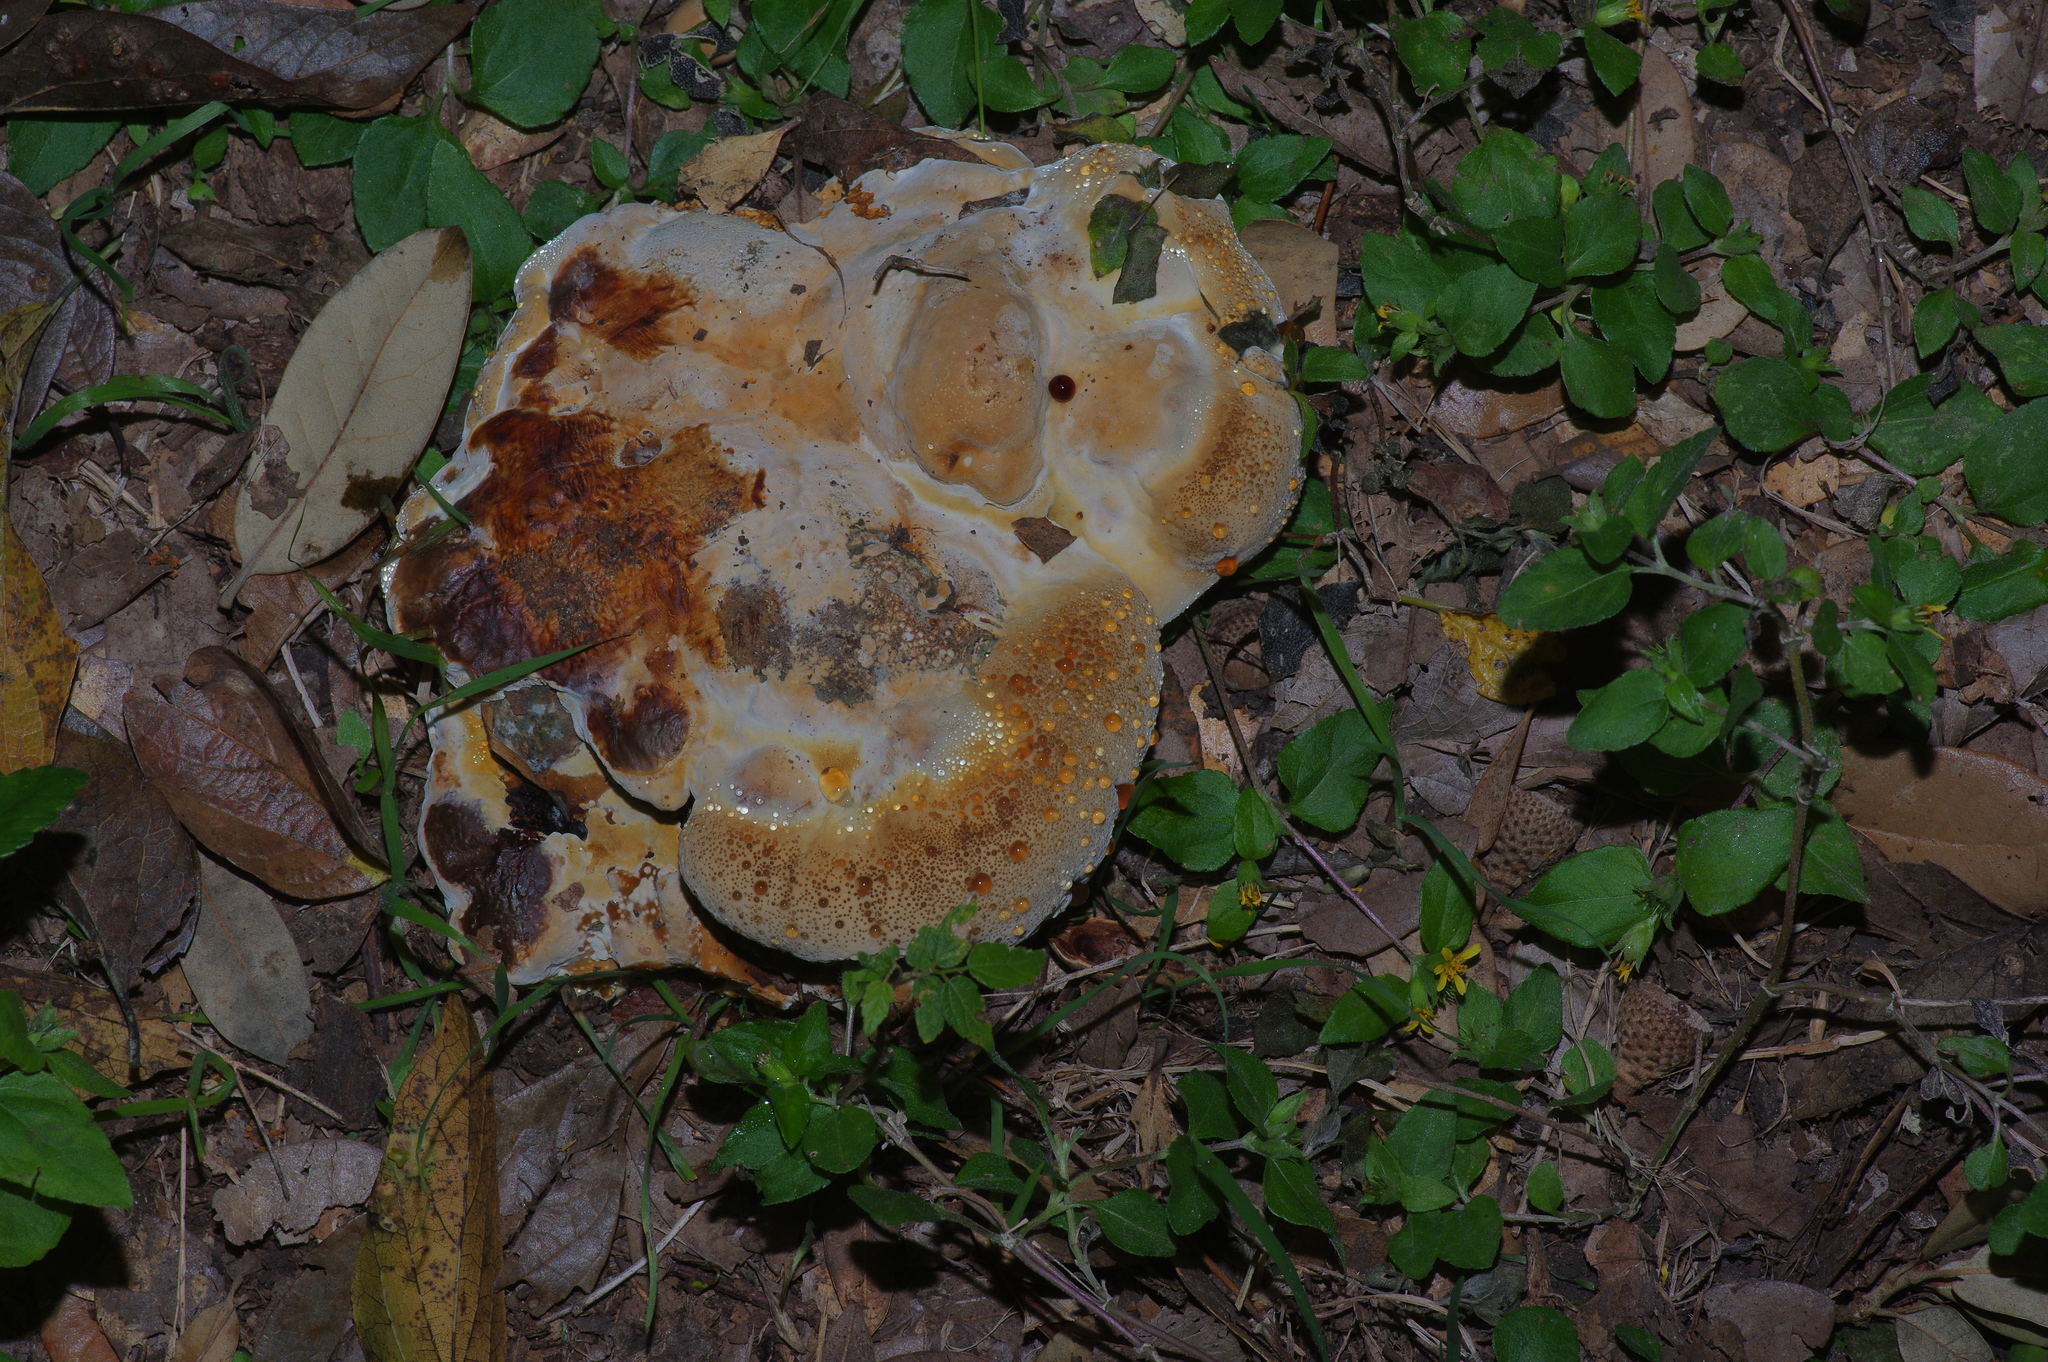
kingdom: Fungi
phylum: Basidiomycota
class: Agaricomycetes
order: Hymenochaetales
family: Hymenochaetaceae
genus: Pseudoinonotus
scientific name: Pseudoinonotus dryadeus
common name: Oak bracket
